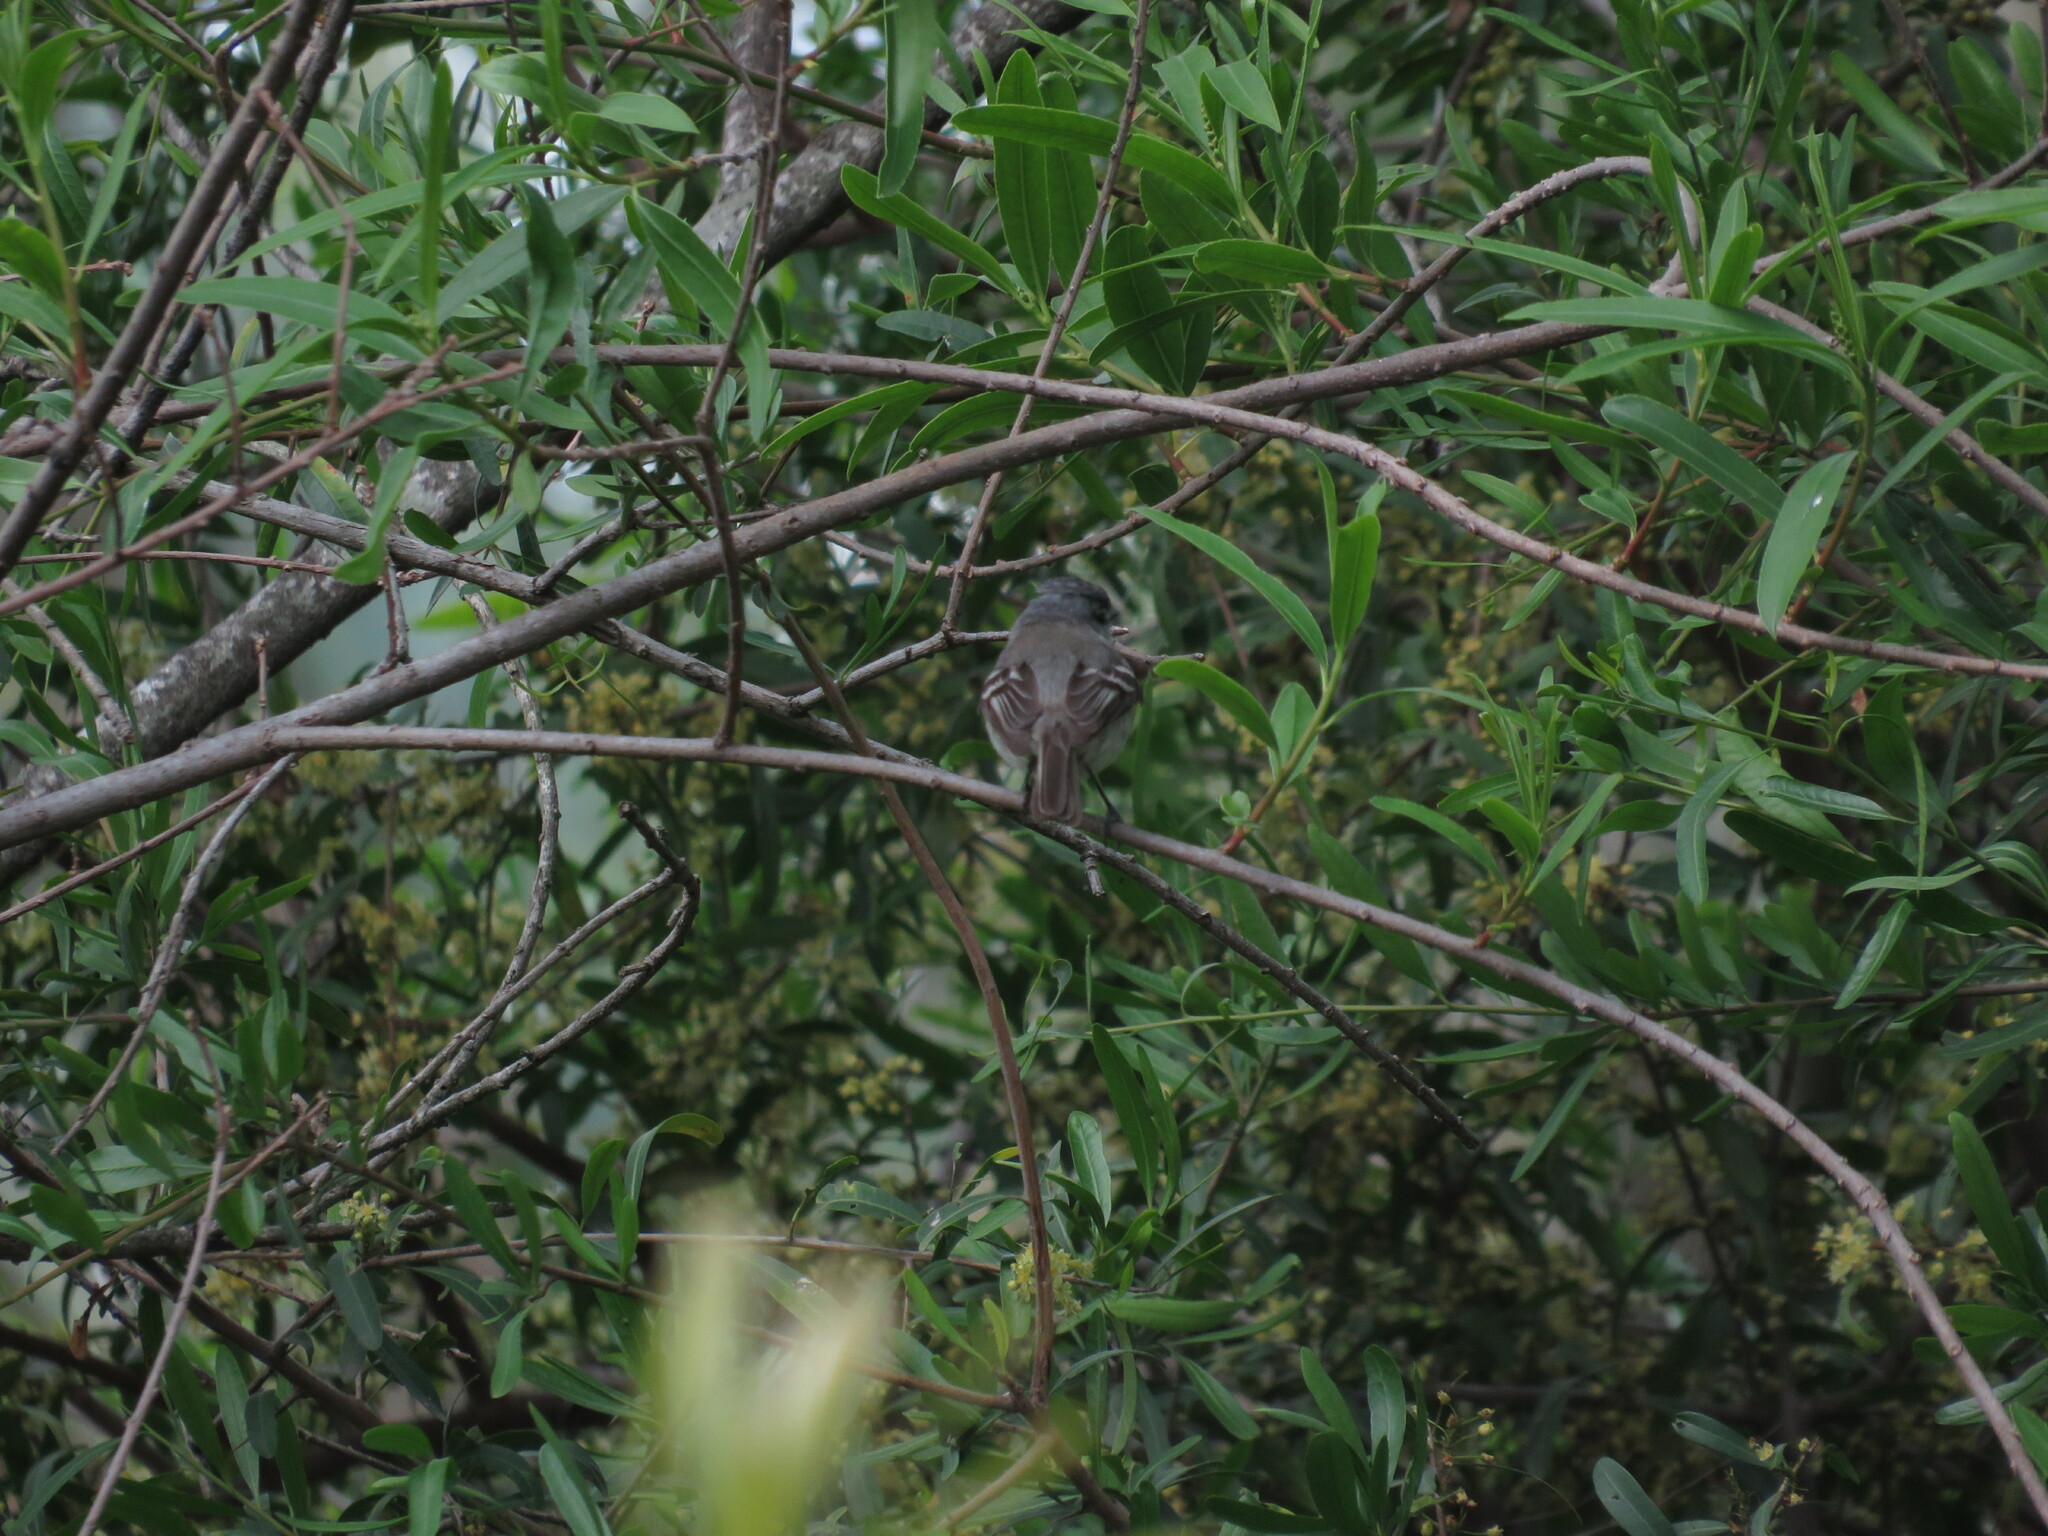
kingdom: Animalia
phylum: Chordata
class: Aves
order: Passeriformes
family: Tyrannidae
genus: Serpophaga
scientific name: Serpophaga subcristata
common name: White-crested tyrannulet
